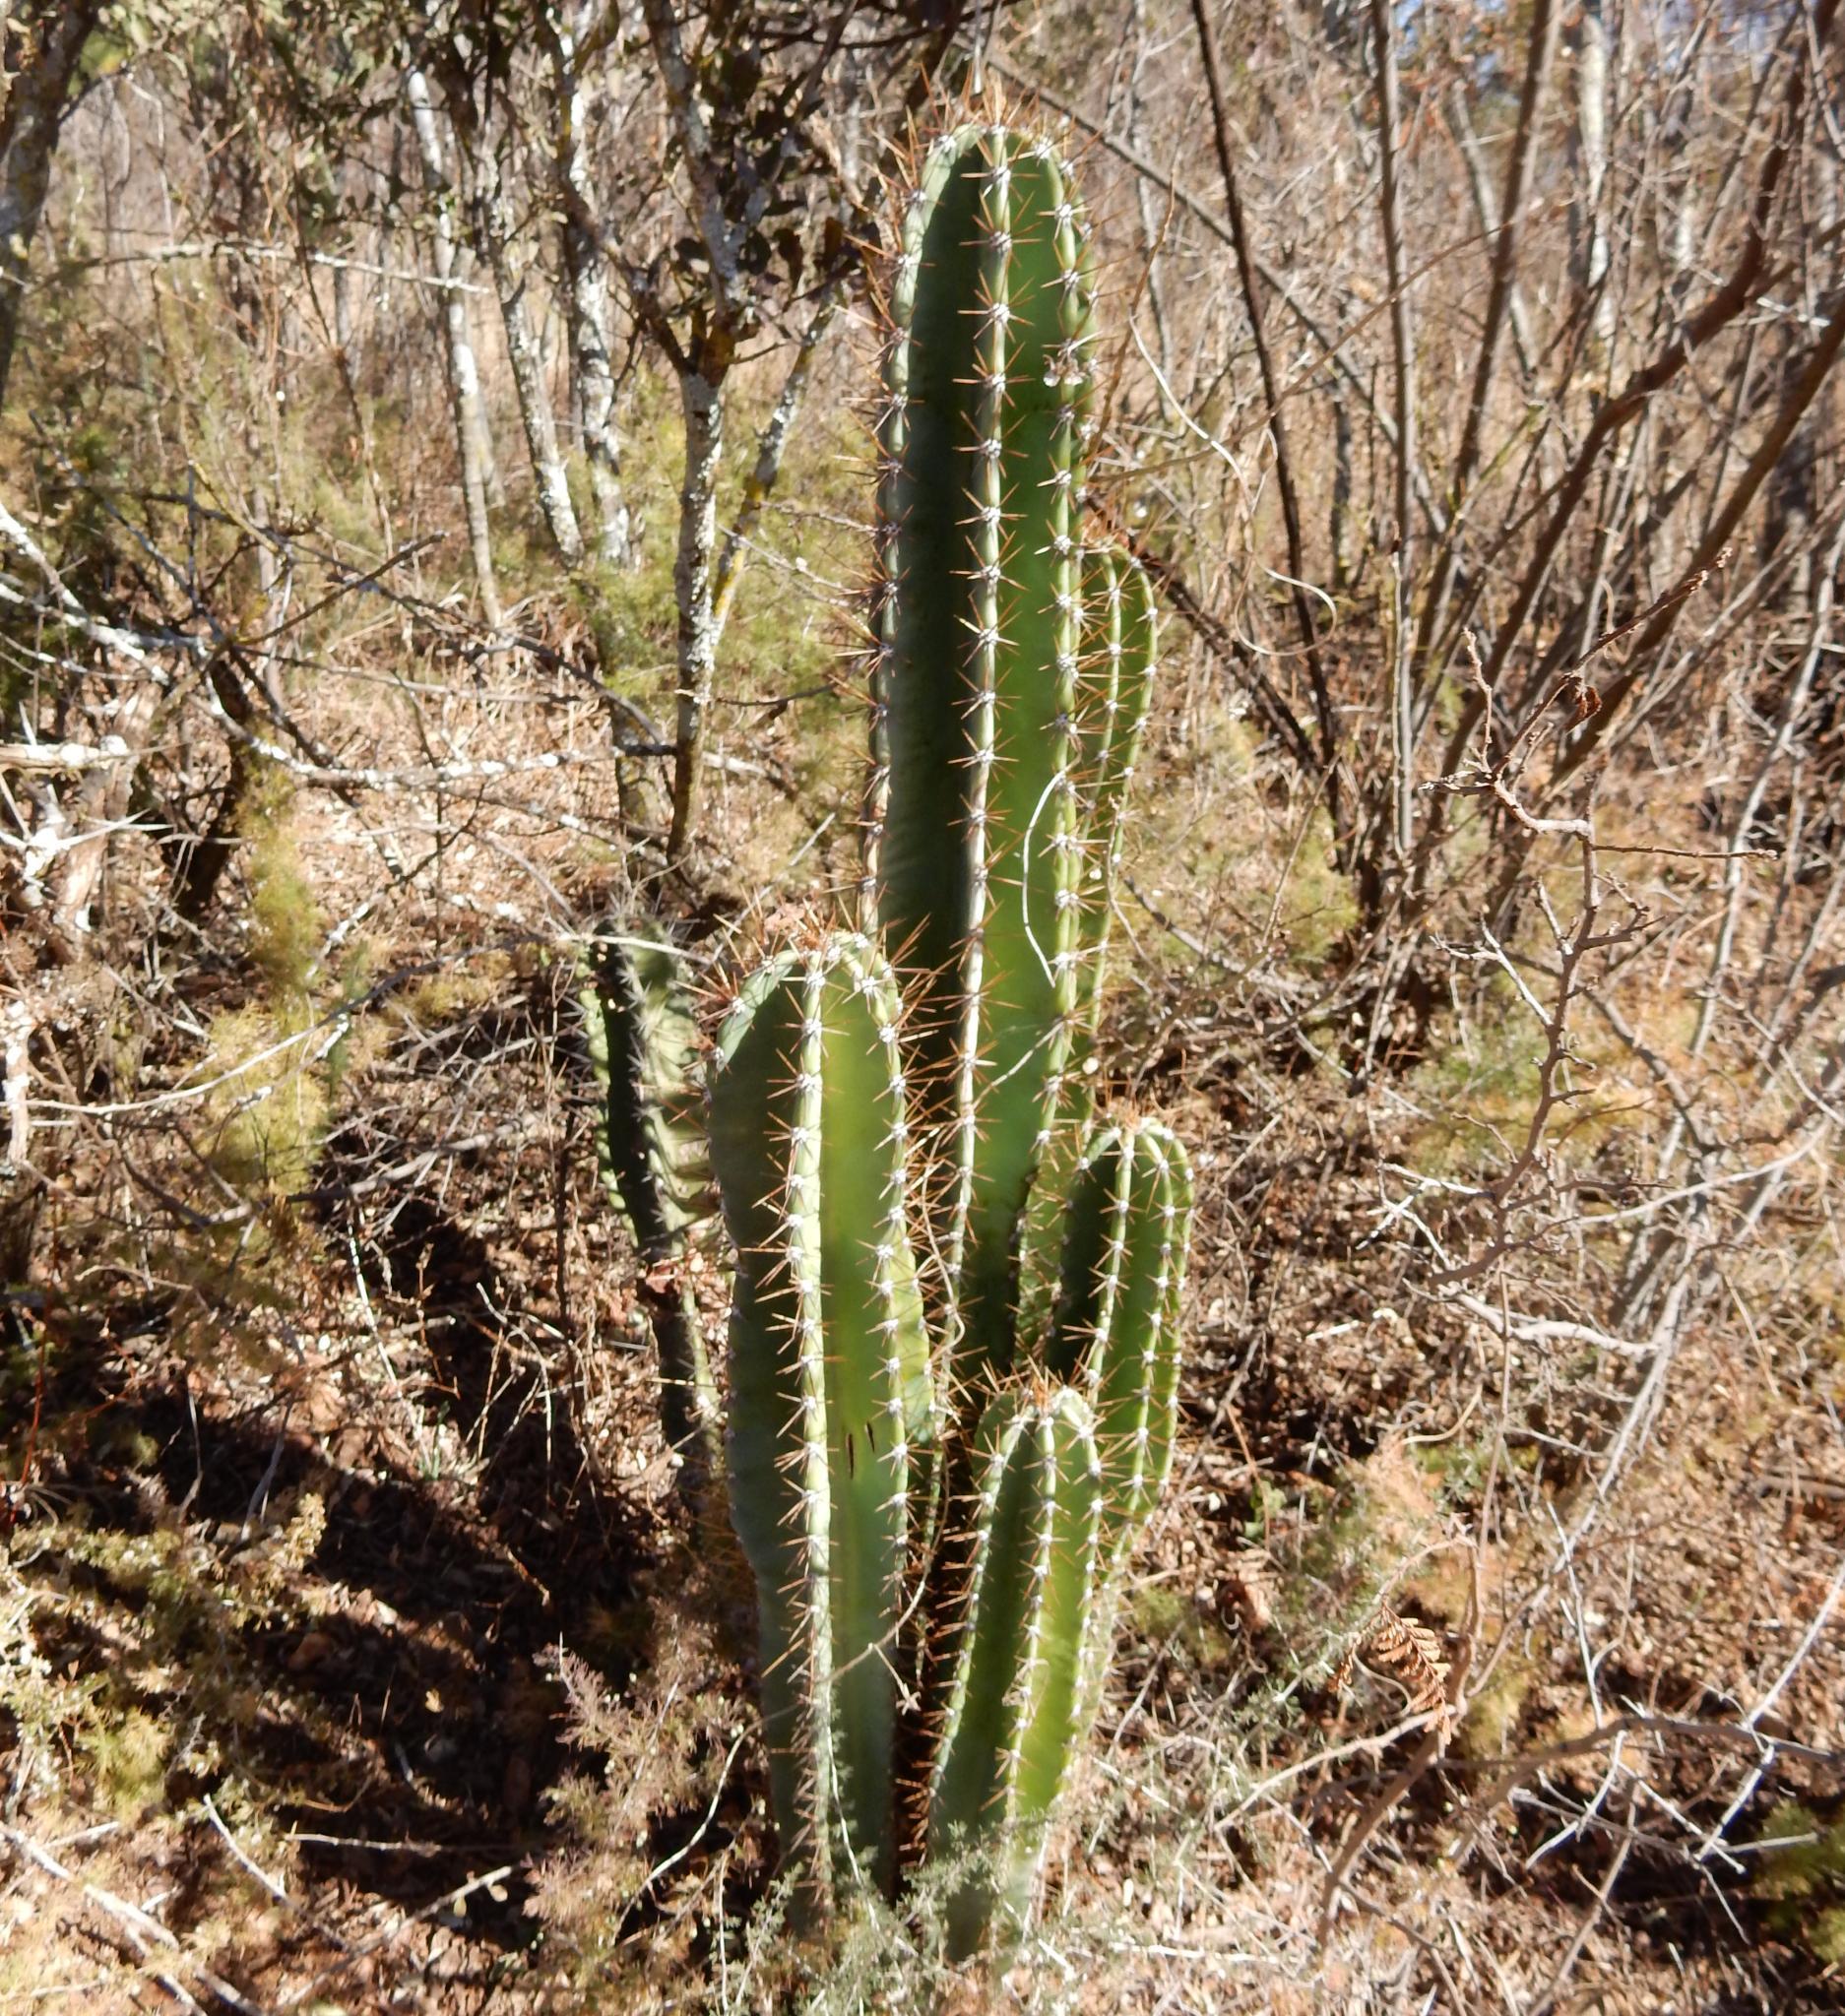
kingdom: Plantae
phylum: Tracheophyta
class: Magnoliopsida
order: Caryophyllales
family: Cactaceae
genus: Cereus
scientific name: Cereus jamacaru
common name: Queen-of-the-night
